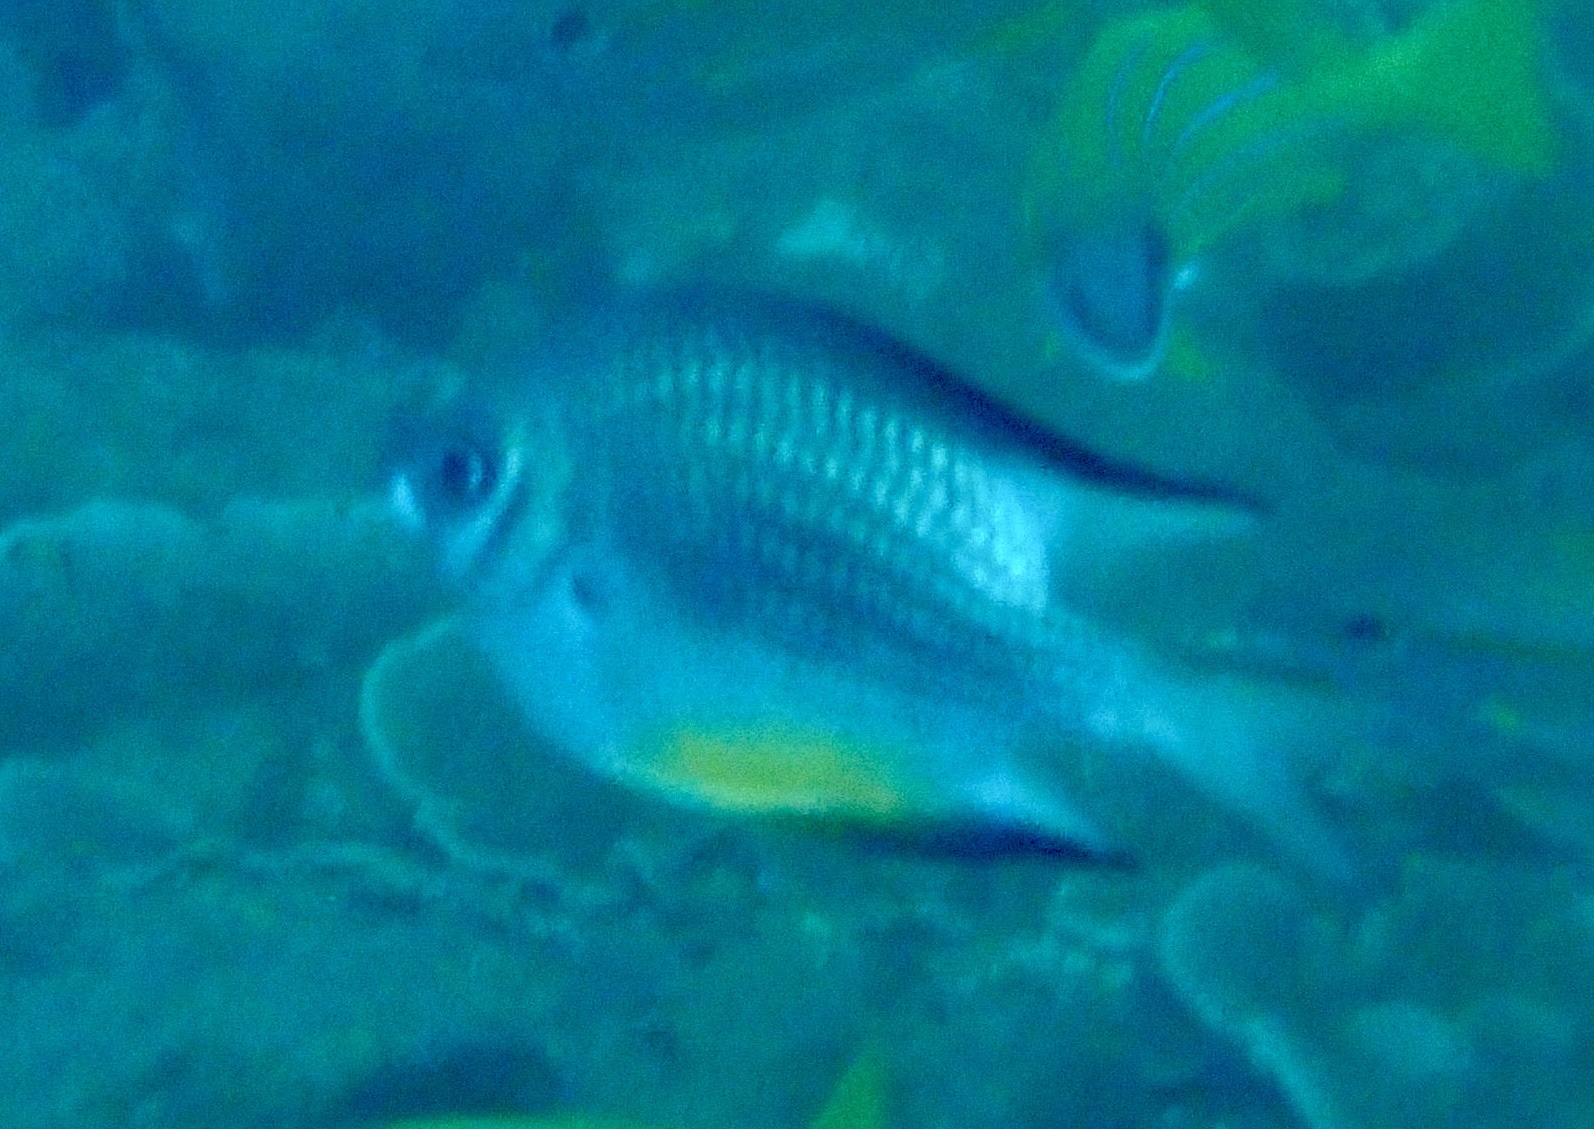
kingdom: Animalia
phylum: Chordata
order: Perciformes
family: Pomacentridae
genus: Amblyglyphidodon
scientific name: Amblyglyphidodon leucogaster
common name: White-belly damsel
